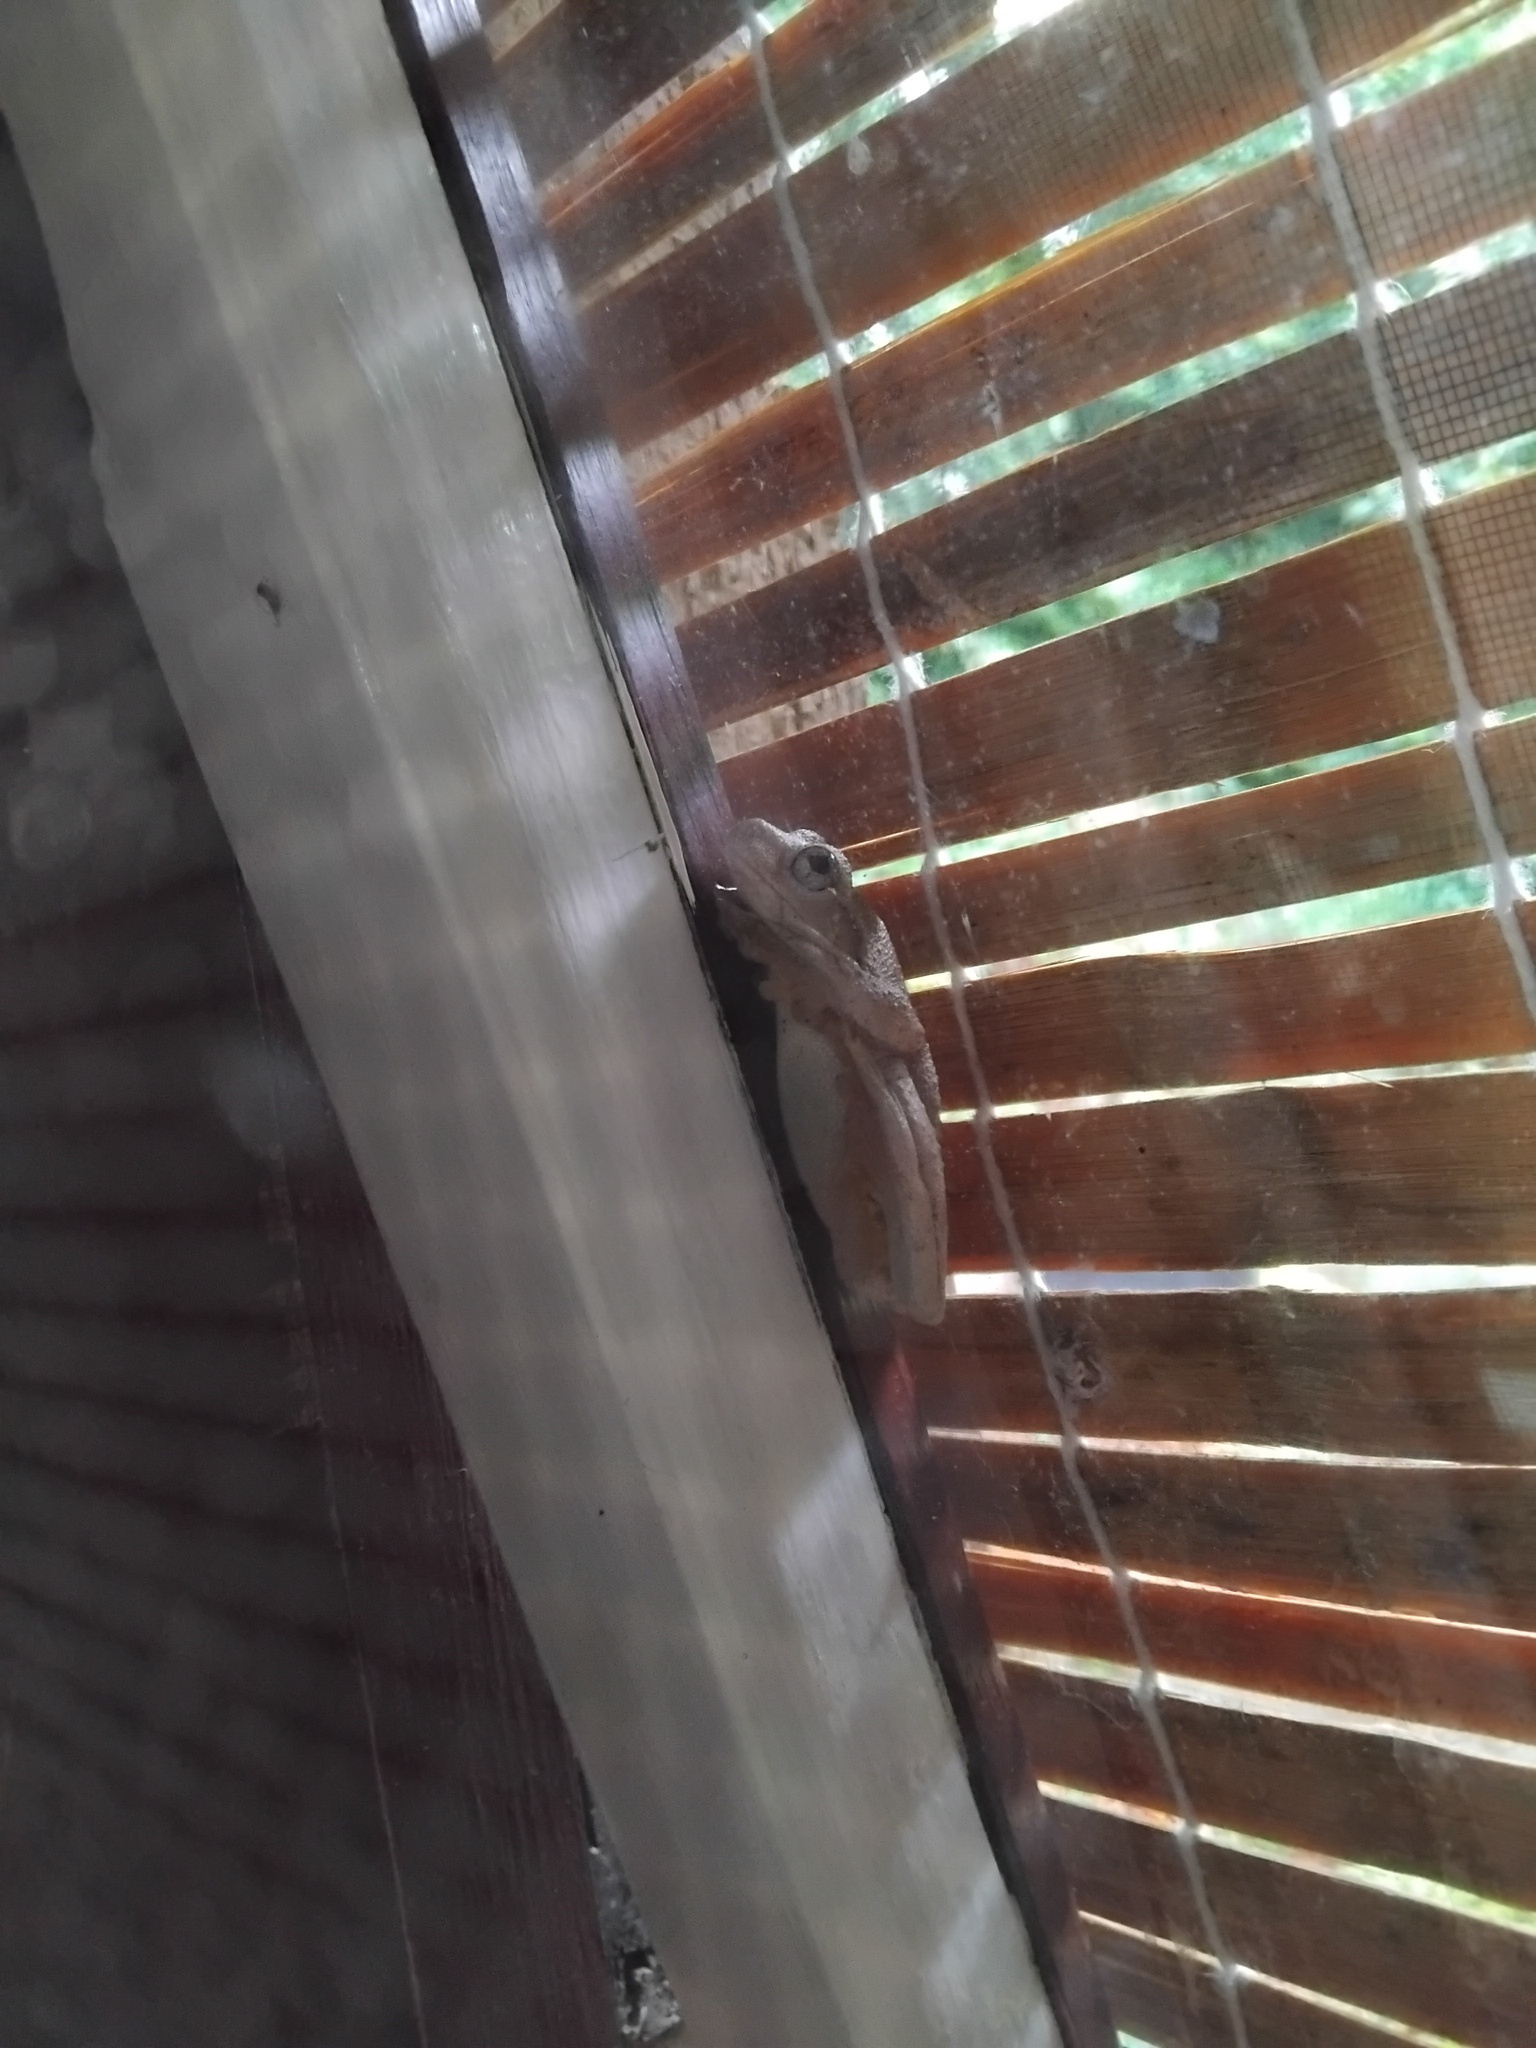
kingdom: Animalia
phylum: Chordata
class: Amphibia
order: Anura
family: Pelodryadidae
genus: Litoria
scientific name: Litoria peronii
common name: Emerald spotted treefrog
